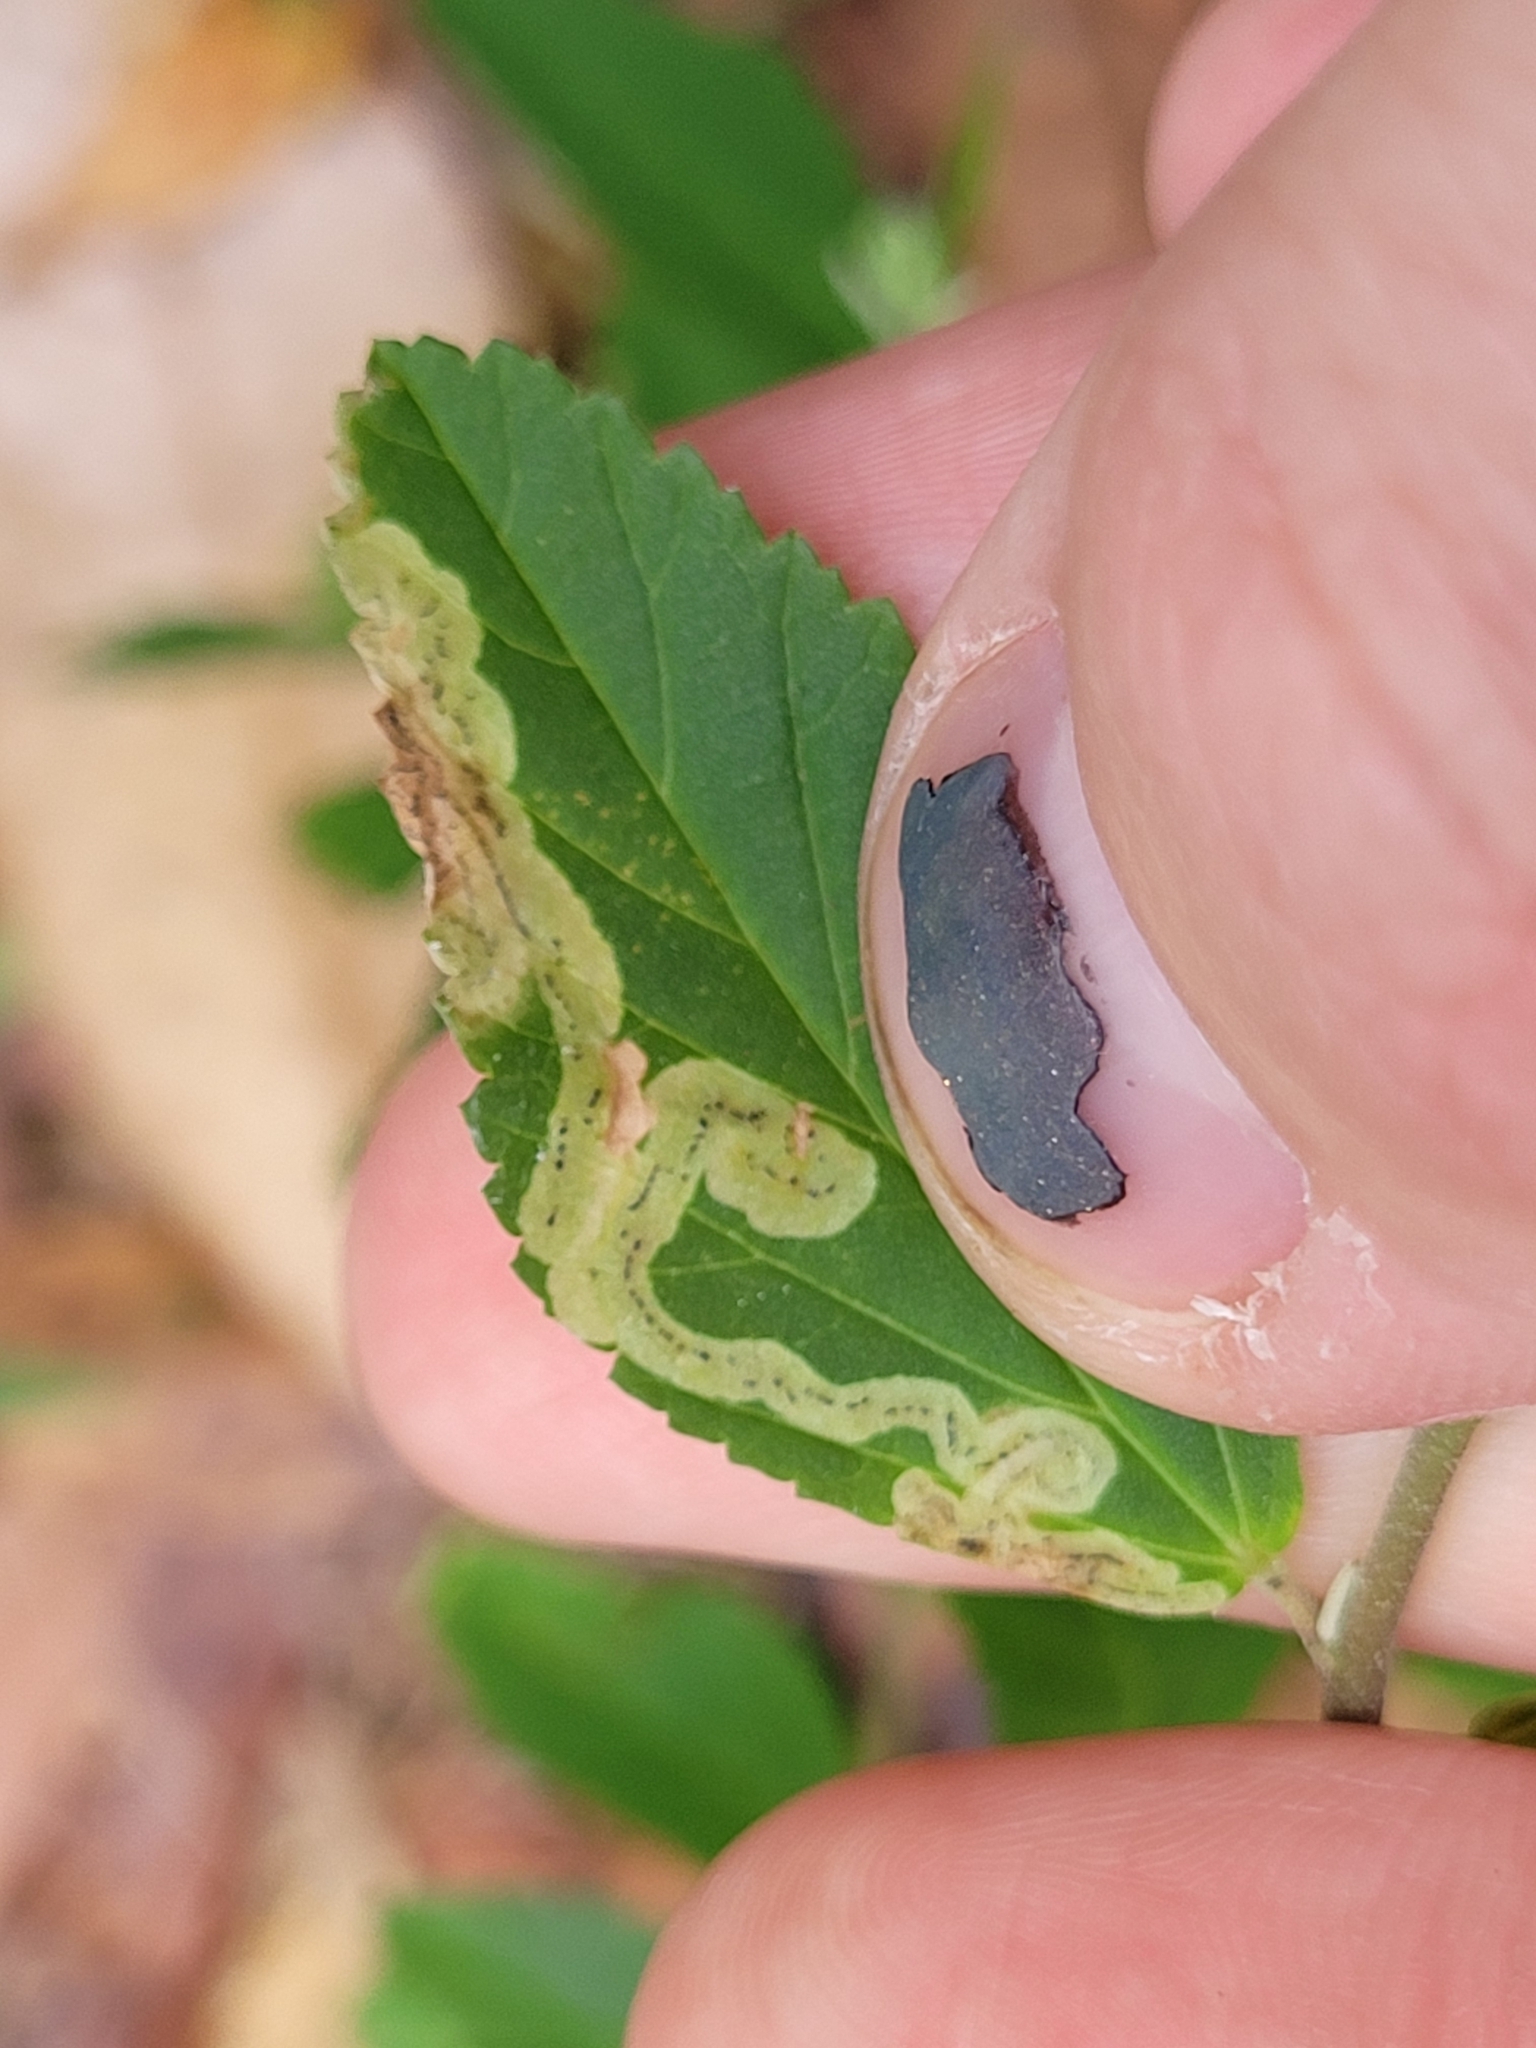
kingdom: Animalia
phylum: Arthropoda
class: Insecta
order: Diptera
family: Agromyzidae
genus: Calycomyza
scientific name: Calycomyza malvae
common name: Mallow leaf miner
